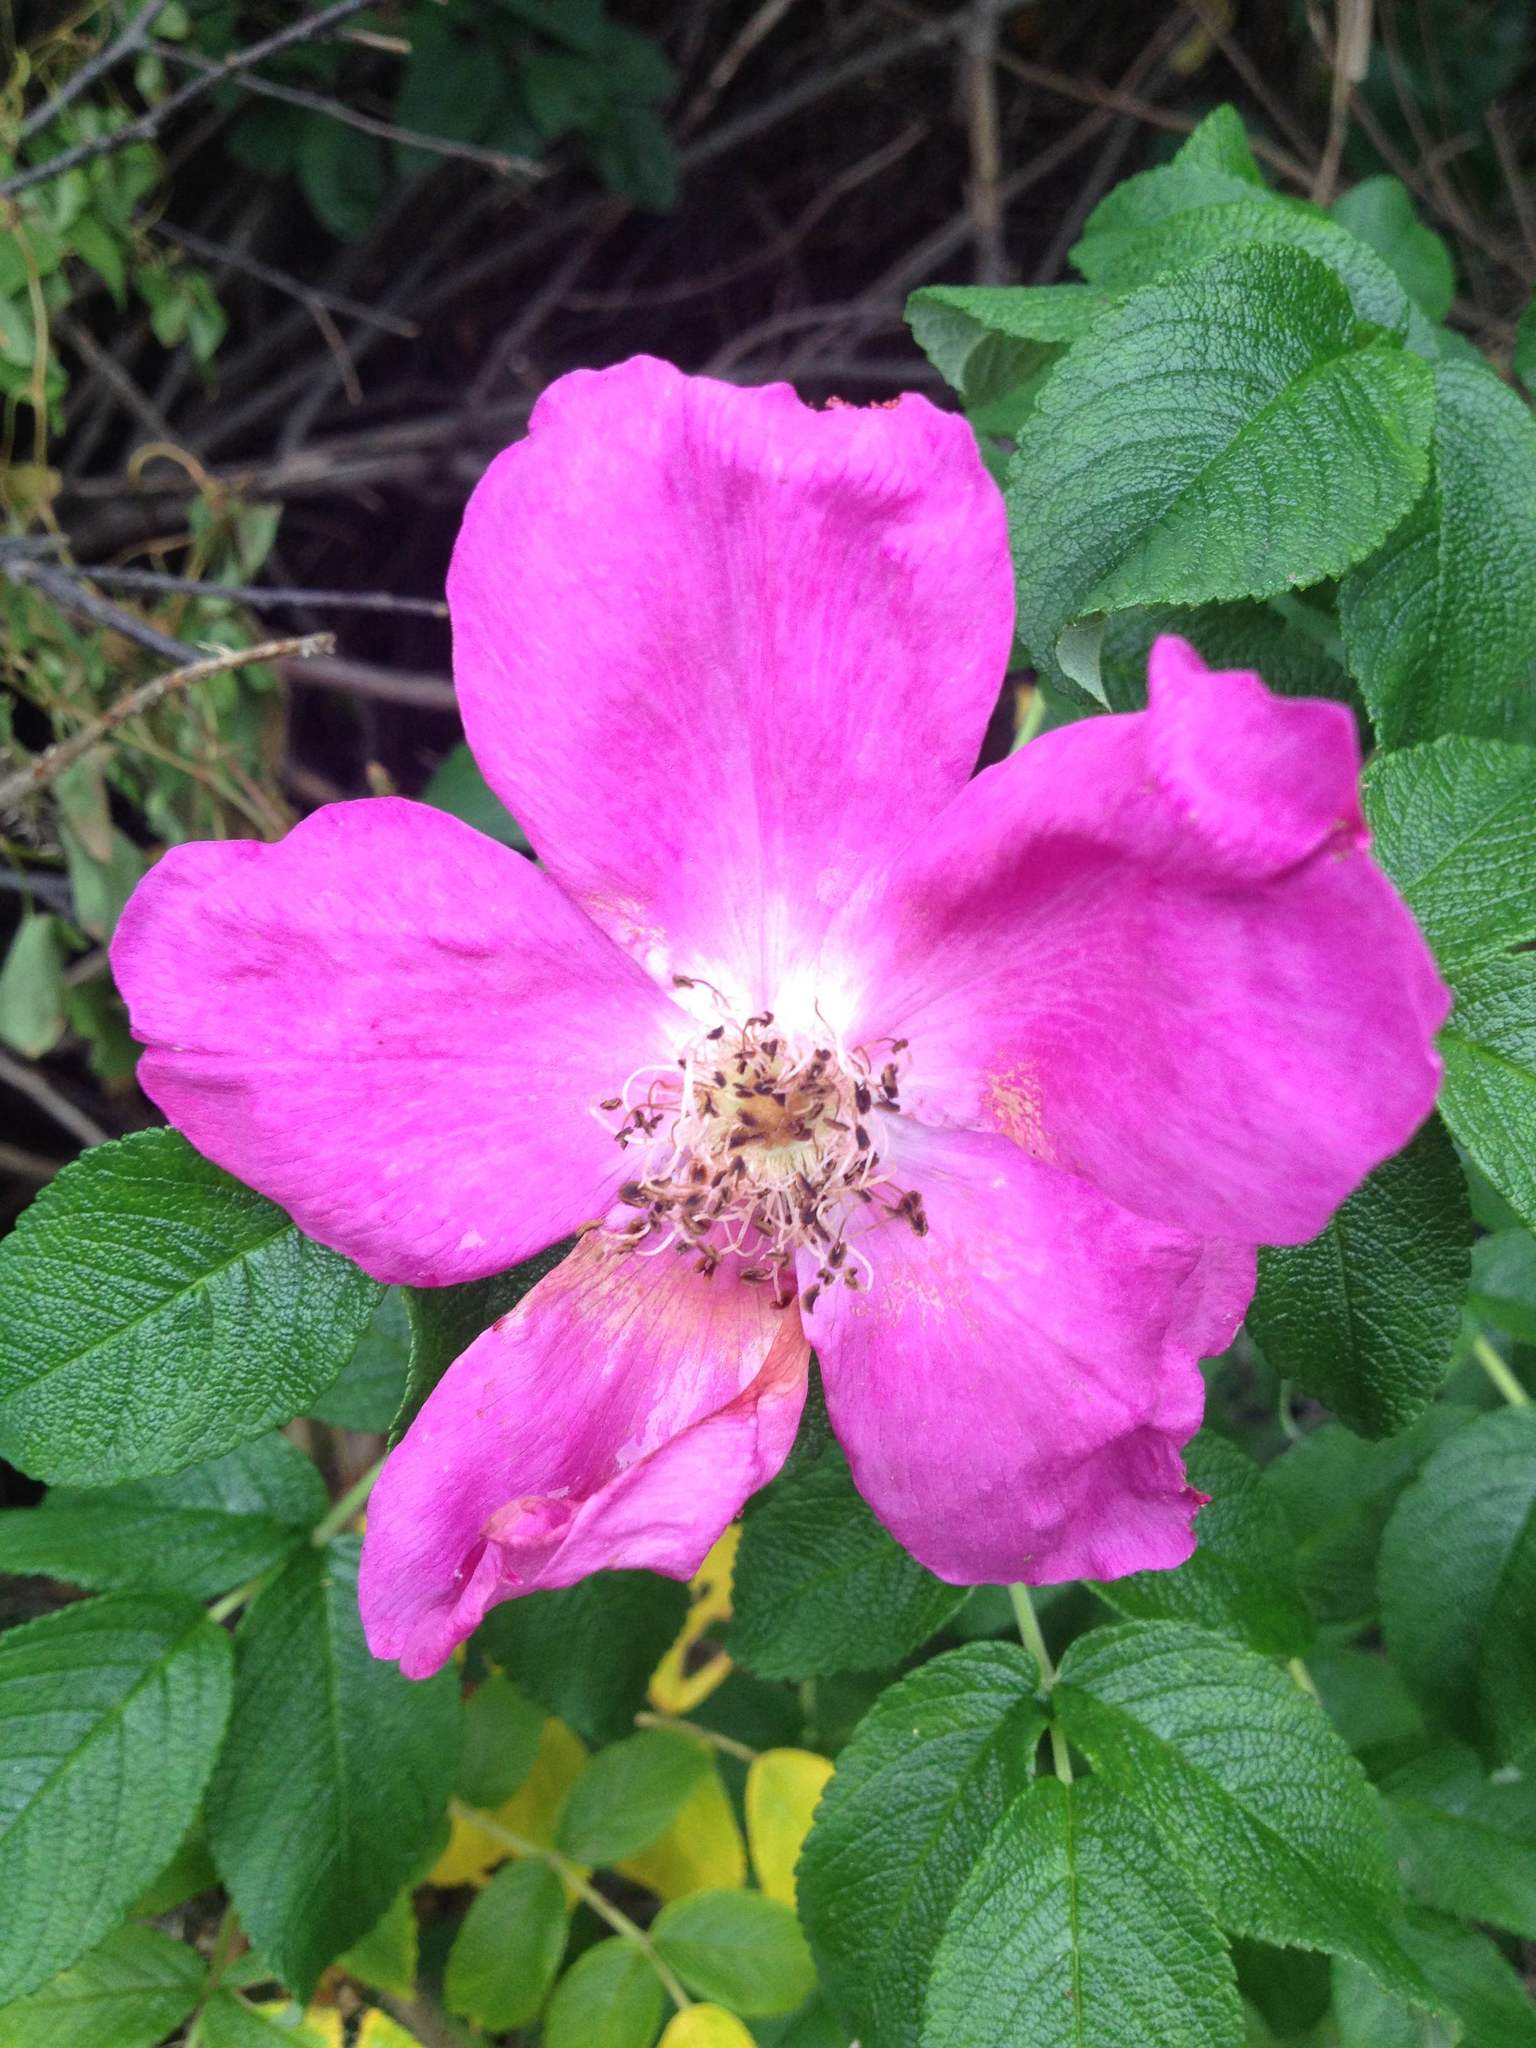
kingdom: Plantae
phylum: Tracheophyta
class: Magnoliopsida
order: Rosales
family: Rosaceae
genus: Rosa
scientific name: Rosa rugosa
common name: Japanese rose
